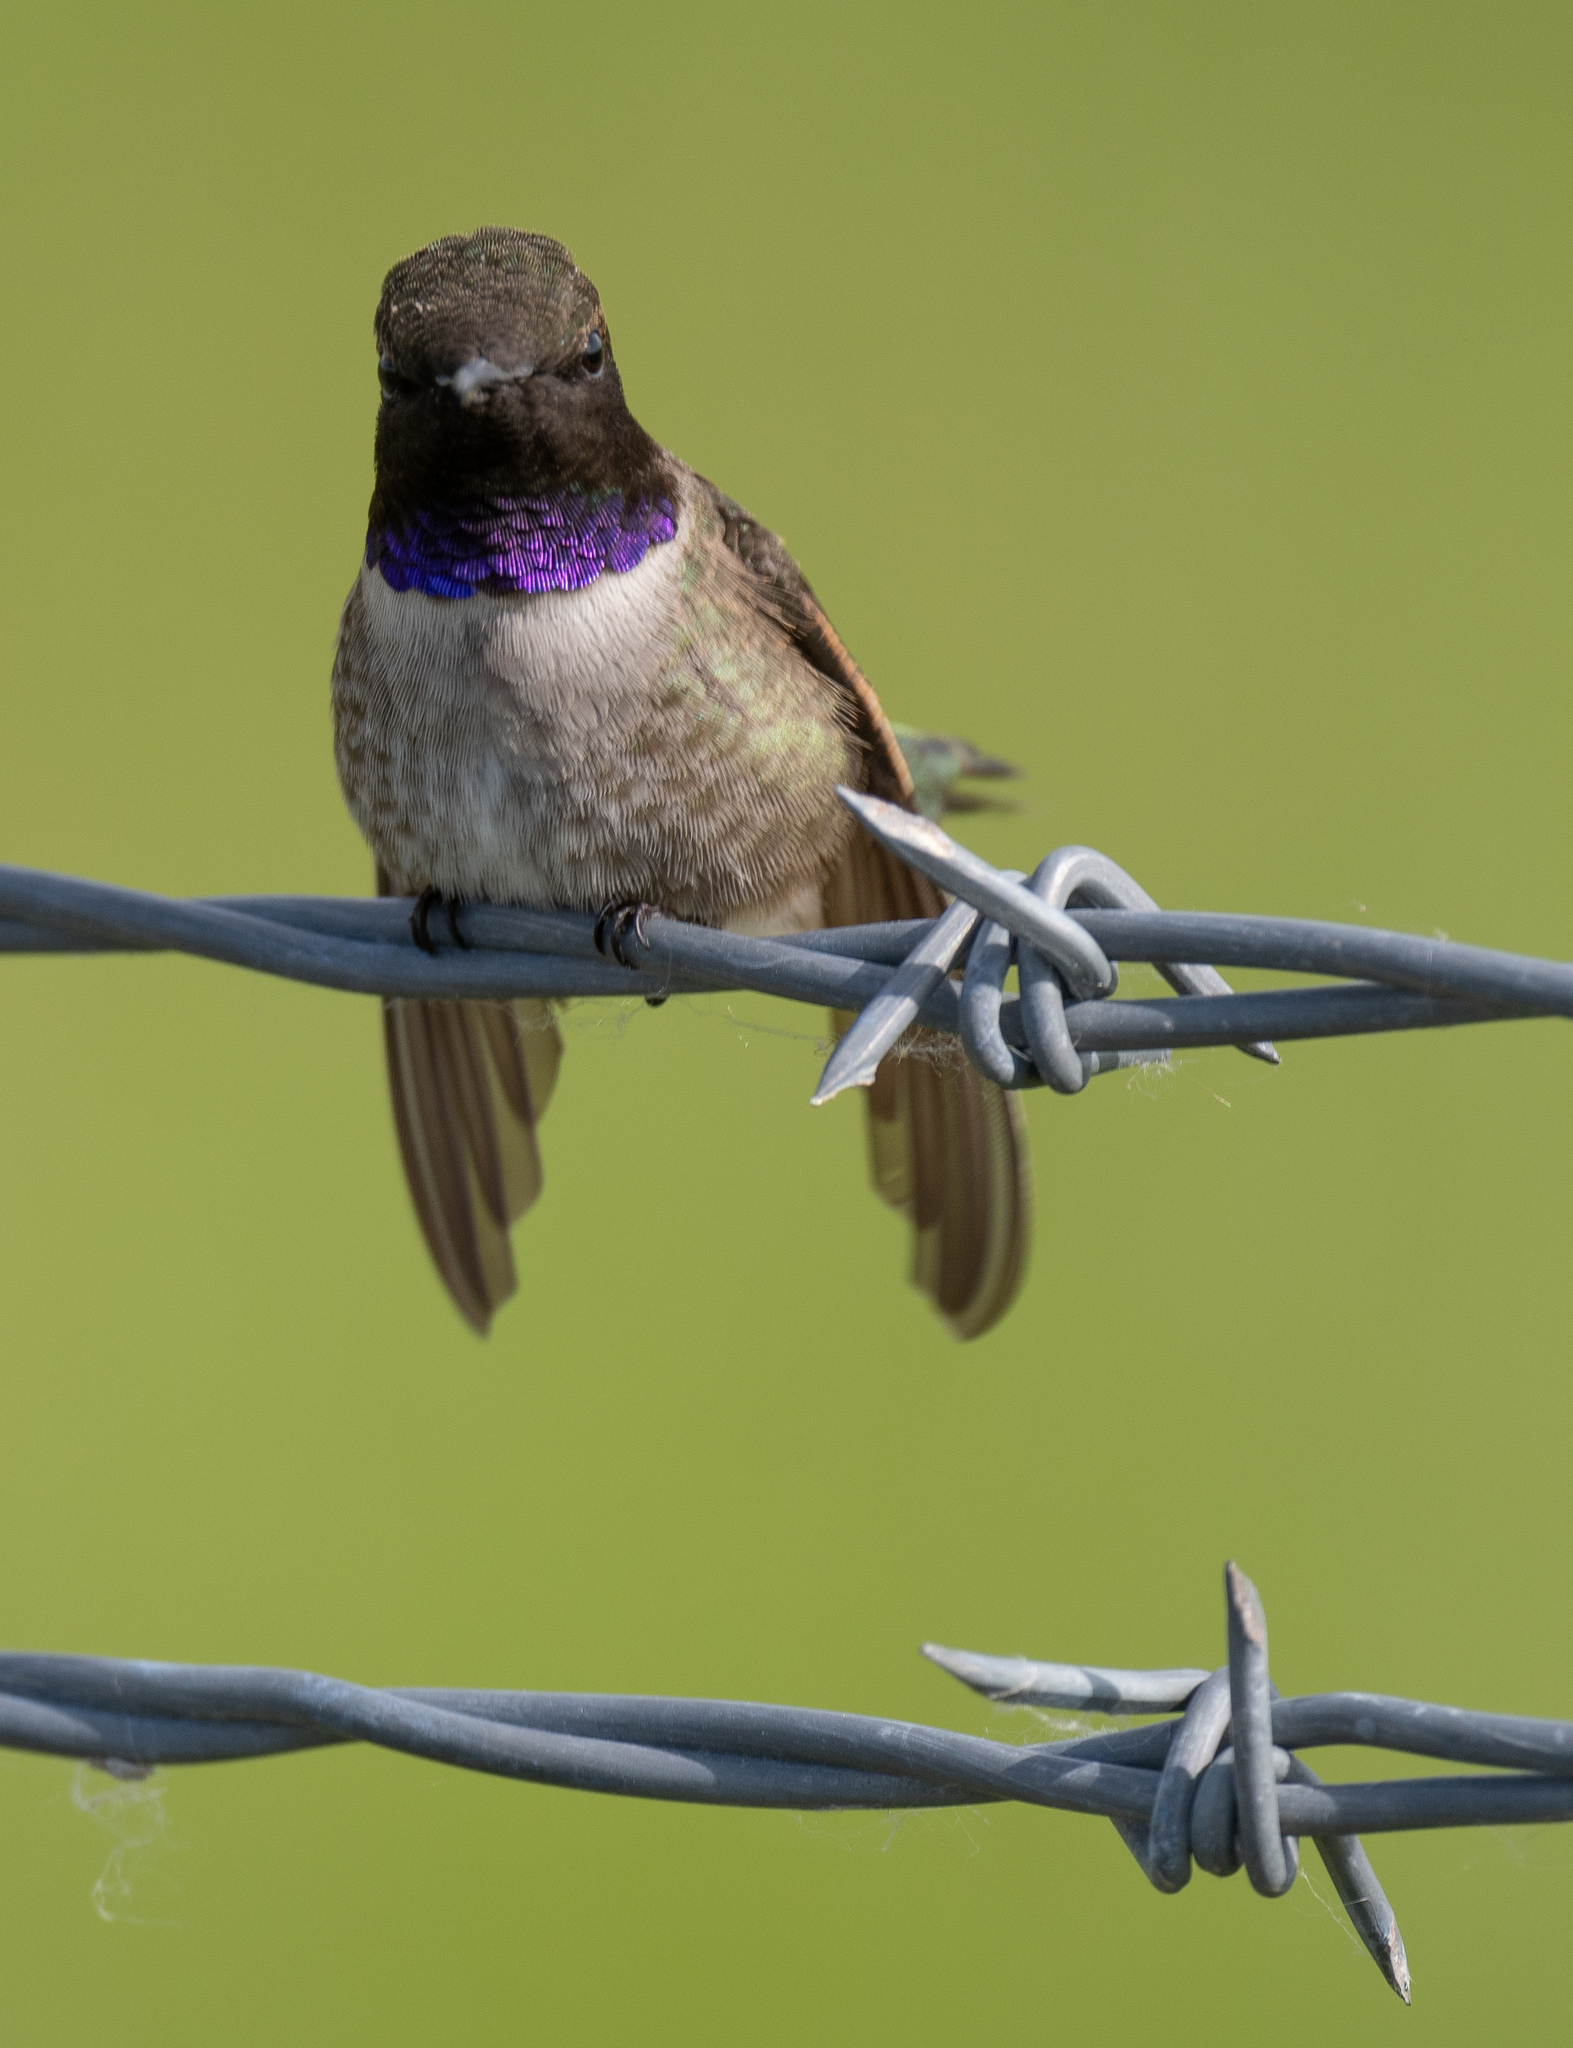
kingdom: Animalia
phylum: Chordata
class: Aves
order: Apodiformes
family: Trochilidae
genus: Archilochus
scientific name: Archilochus alexandri
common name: Black-chinned hummingbird
